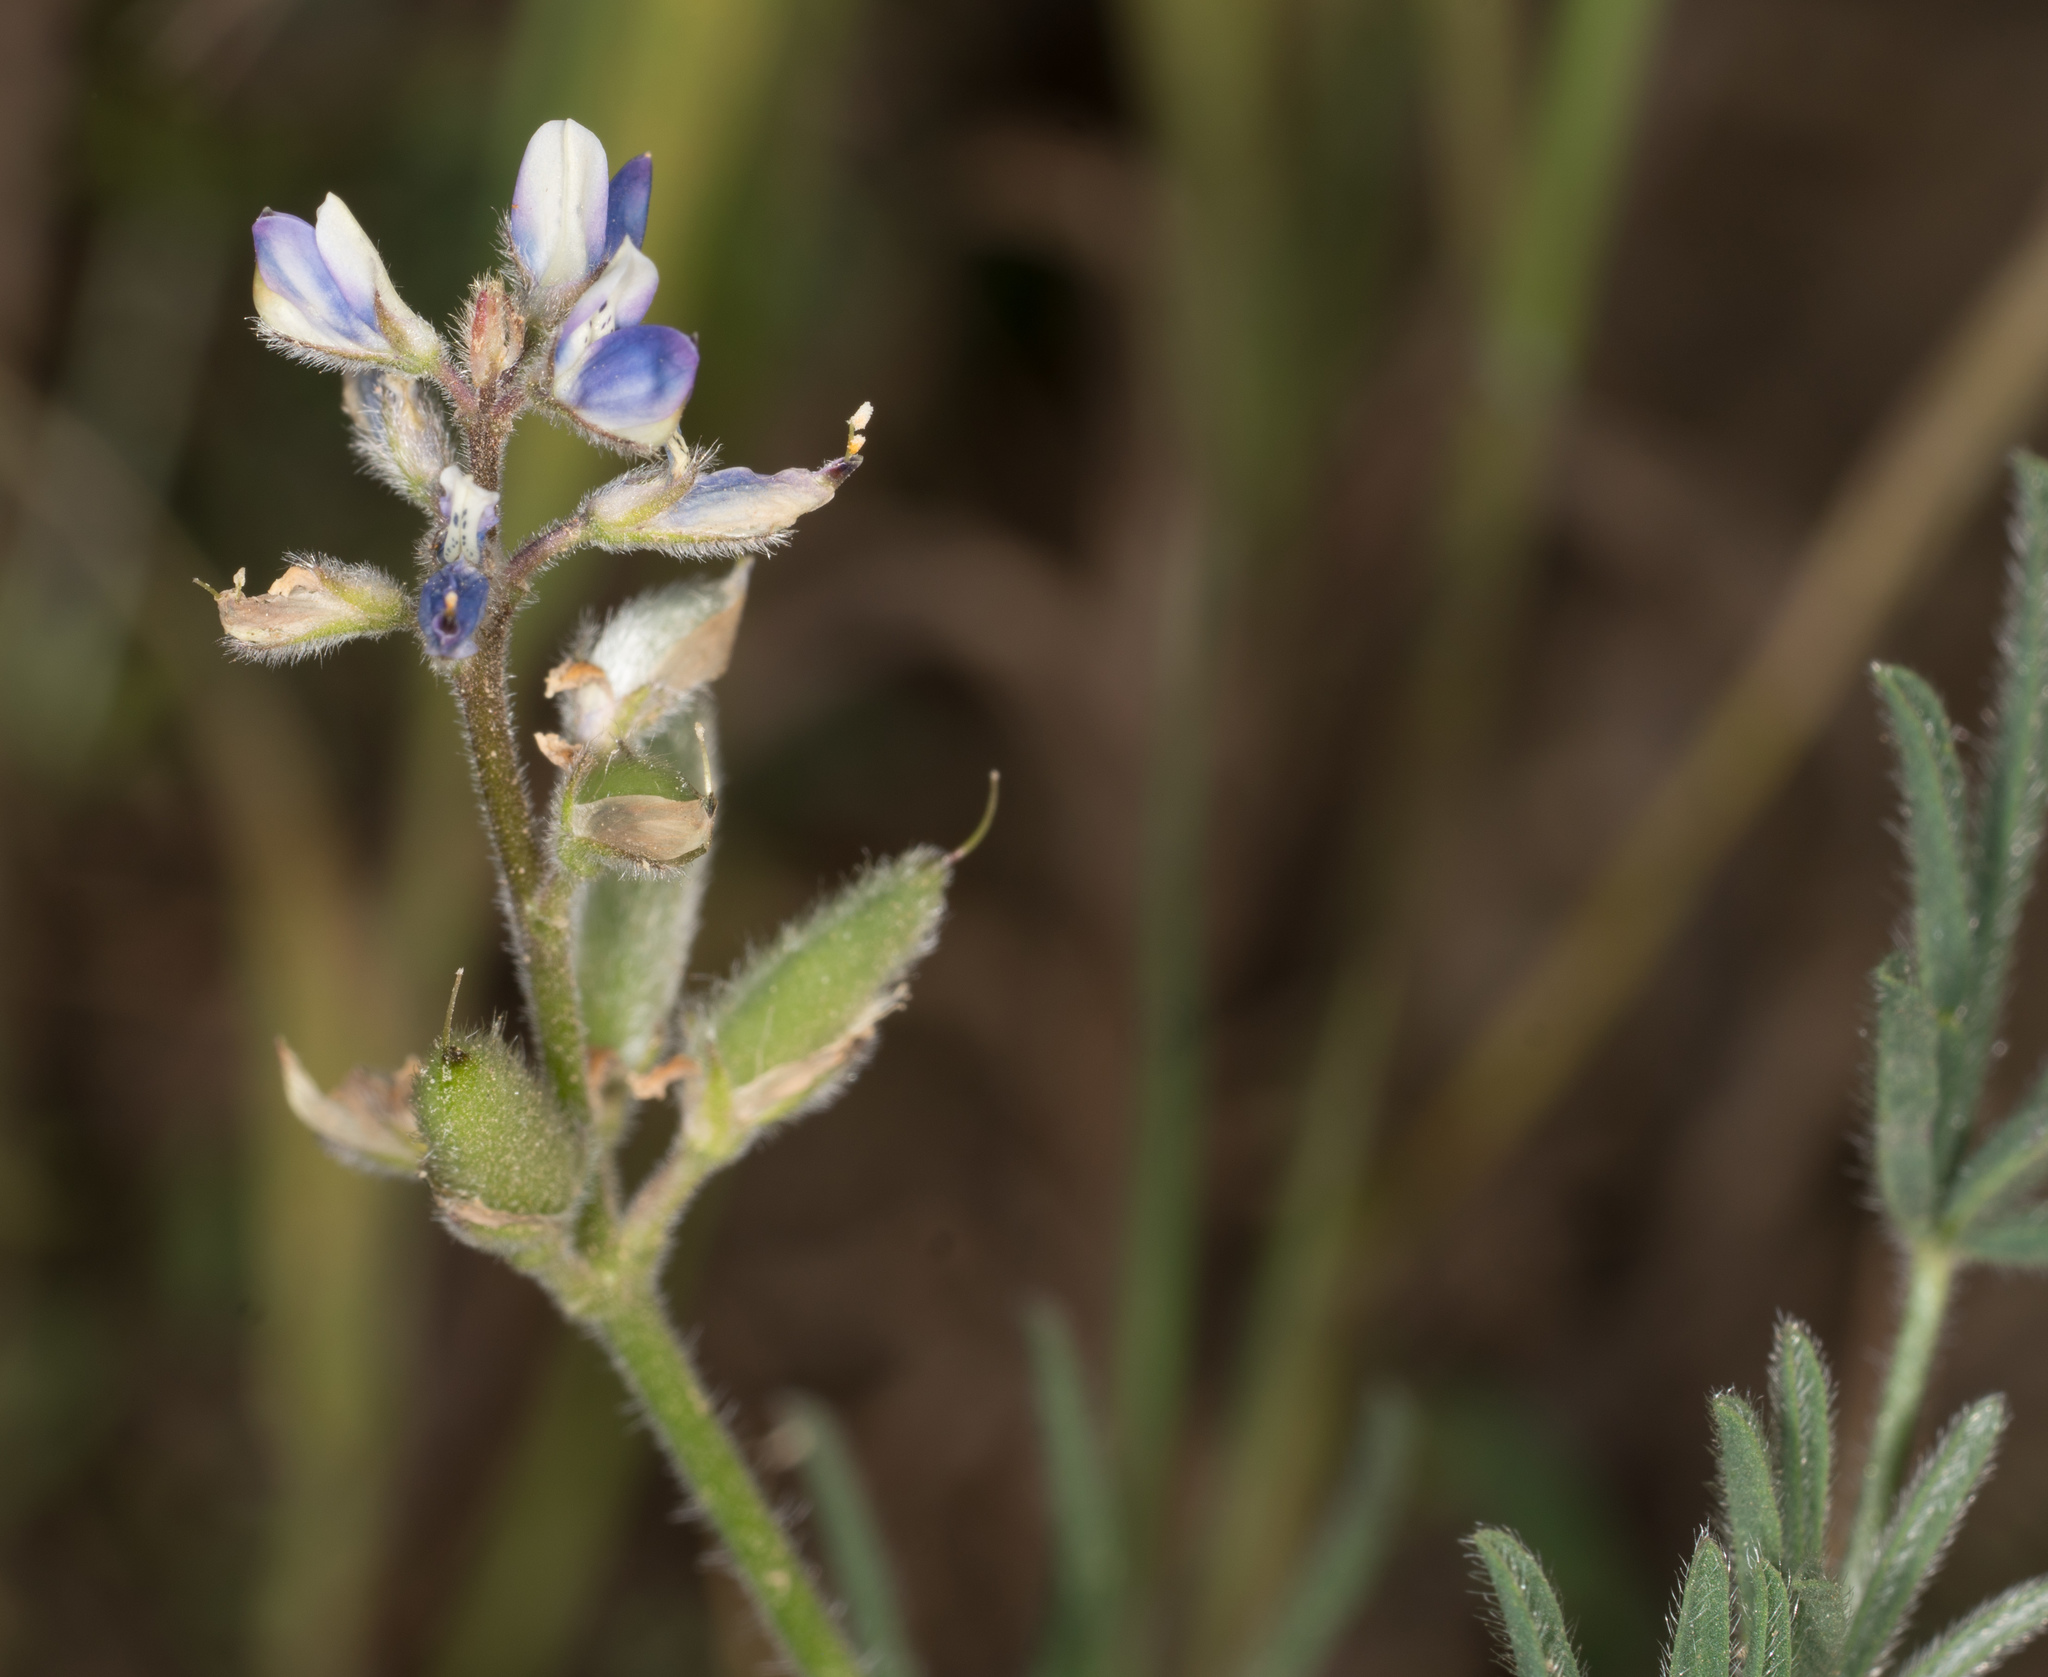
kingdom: Plantae
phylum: Tracheophyta
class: Magnoliopsida
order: Fabales
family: Fabaceae
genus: Lupinus
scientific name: Lupinus bicolor
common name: Miniature lupine
